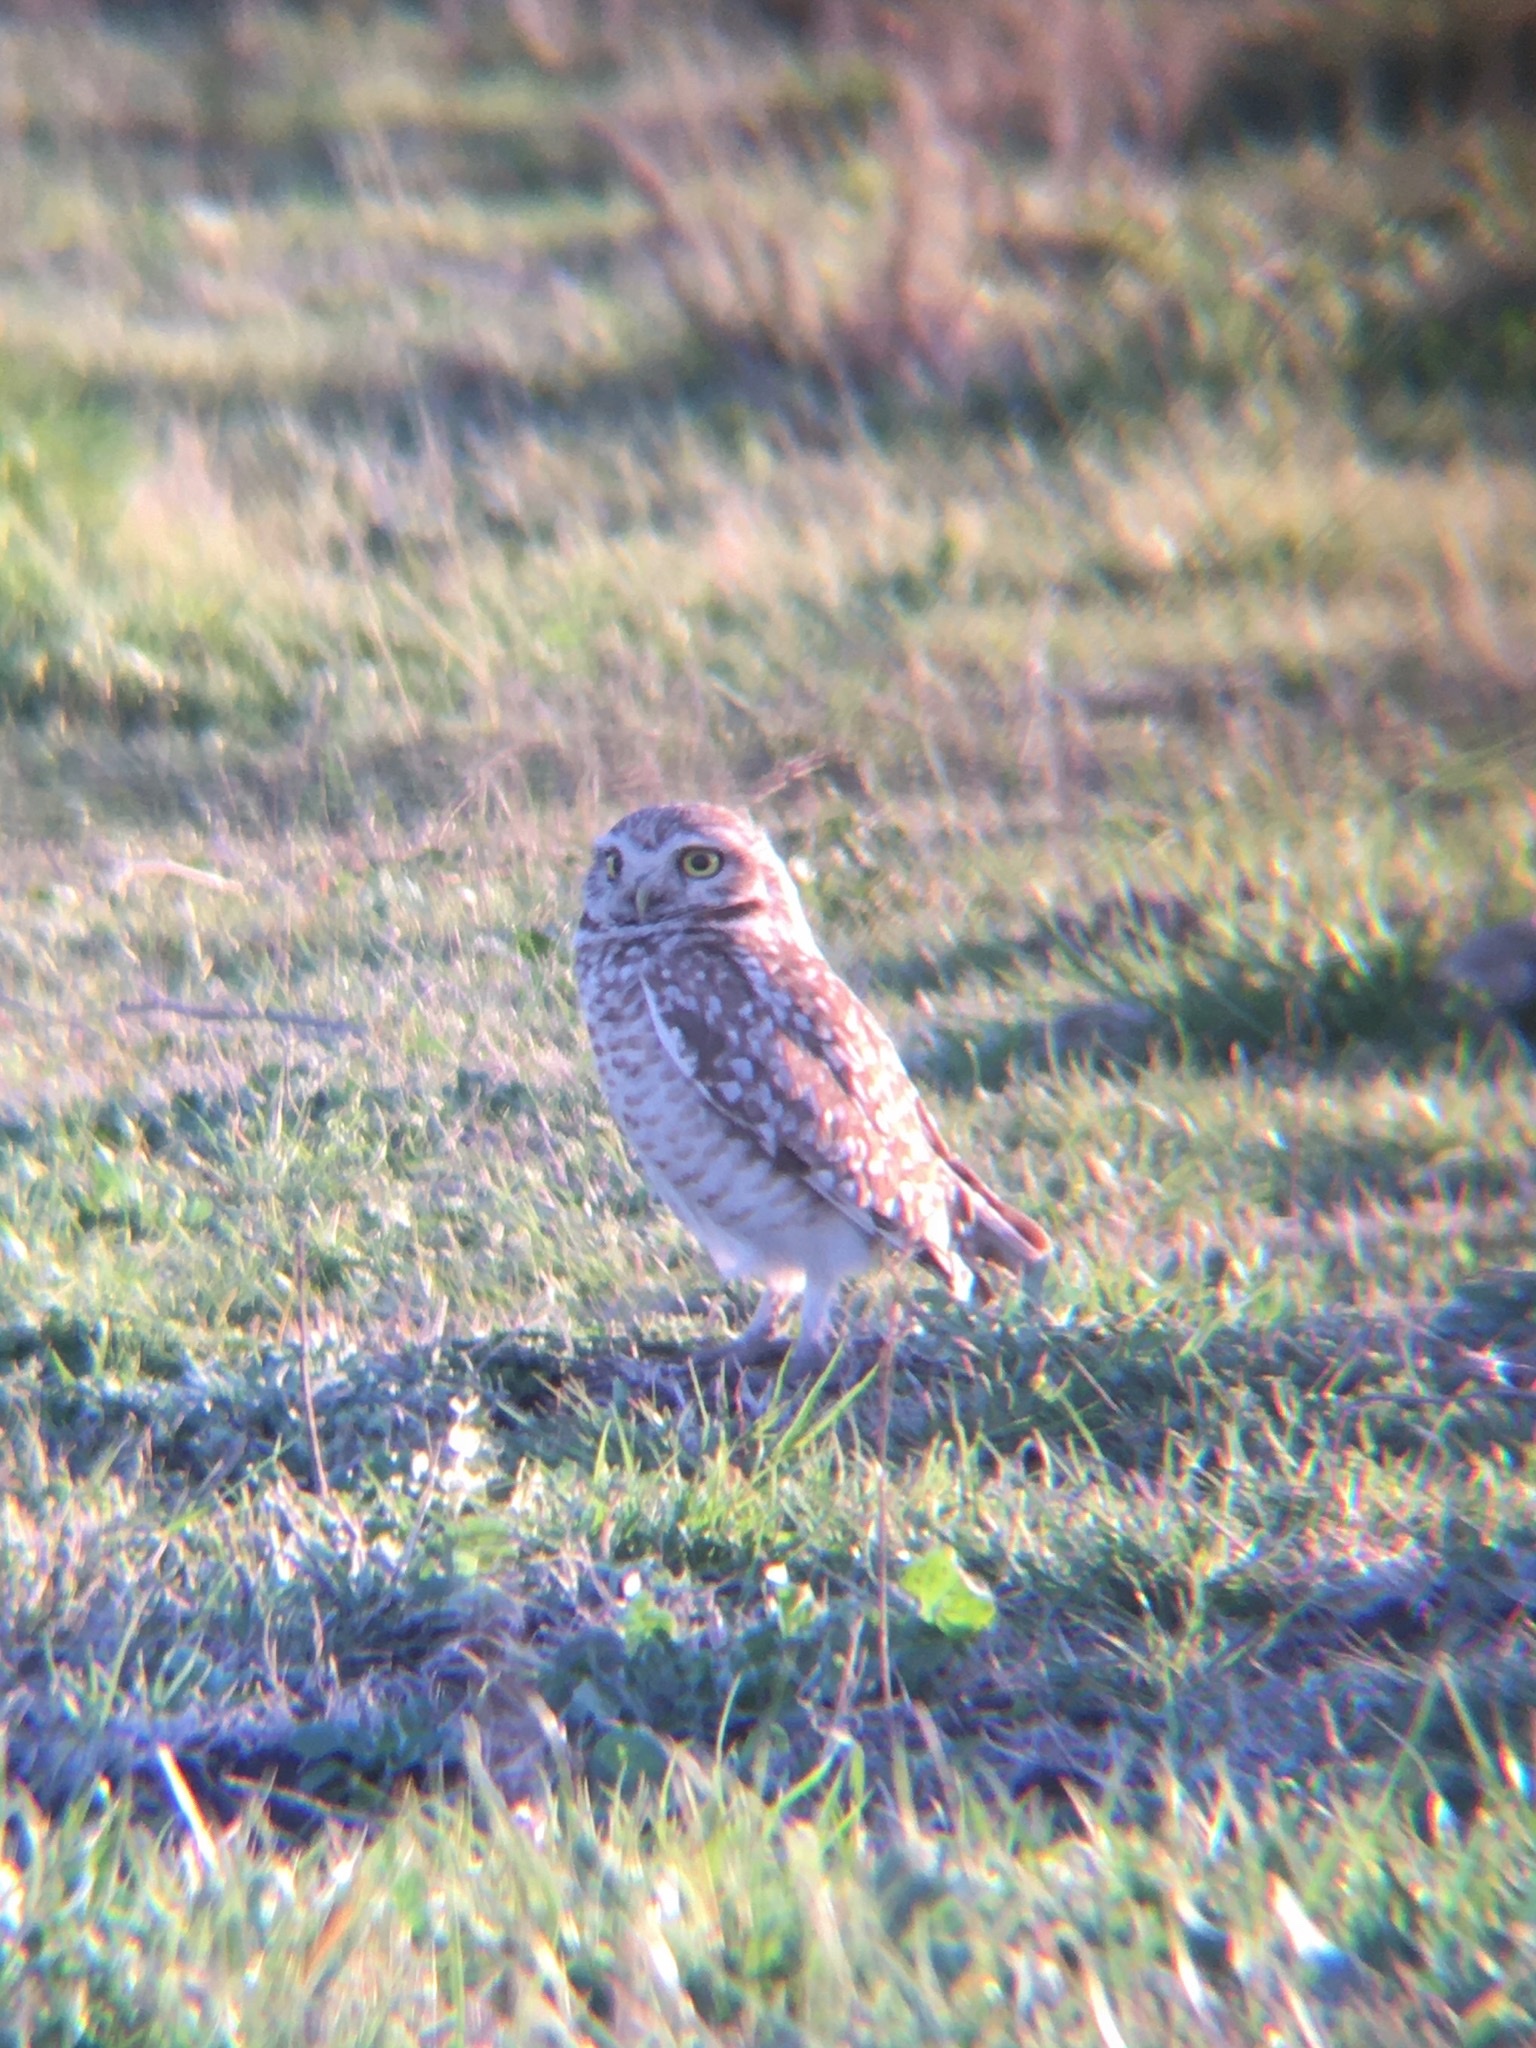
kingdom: Animalia
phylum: Chordata
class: Aves
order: Strigiformes
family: Strigidae
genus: Athene
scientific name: Athene cunicularia
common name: Burrowing owl
